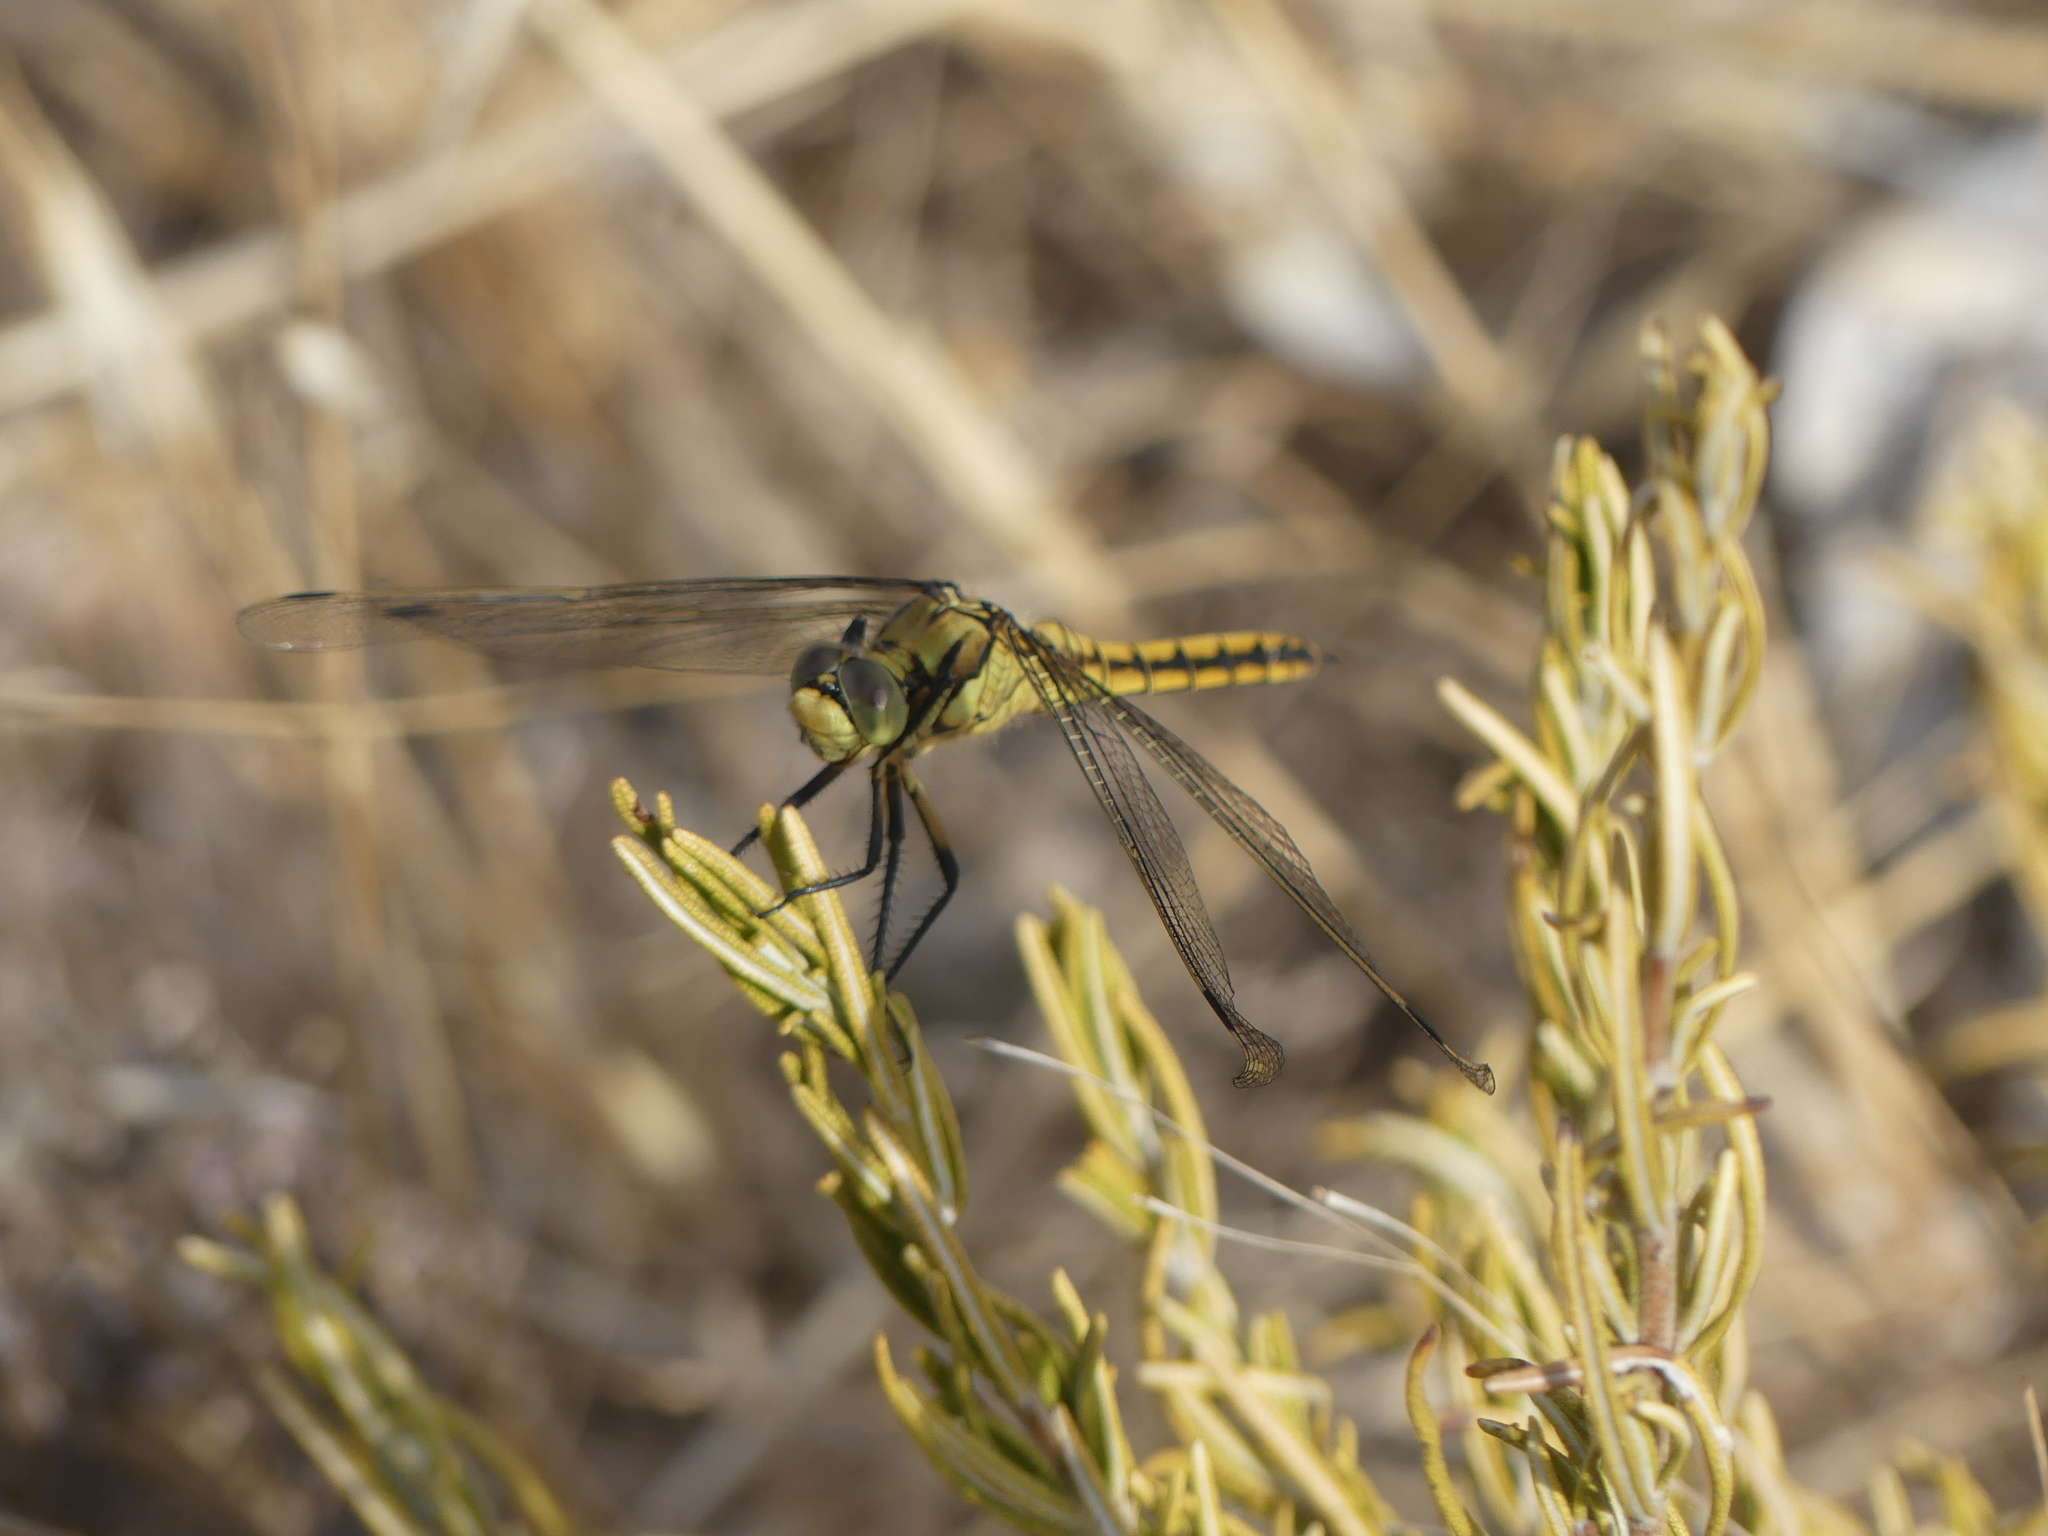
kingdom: Animalia
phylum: Arthropoda
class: Insecta
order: Odonata
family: Libellulidae
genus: Orthetrum
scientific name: Orthetrum cancellatum
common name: Black-tailed skimmer
